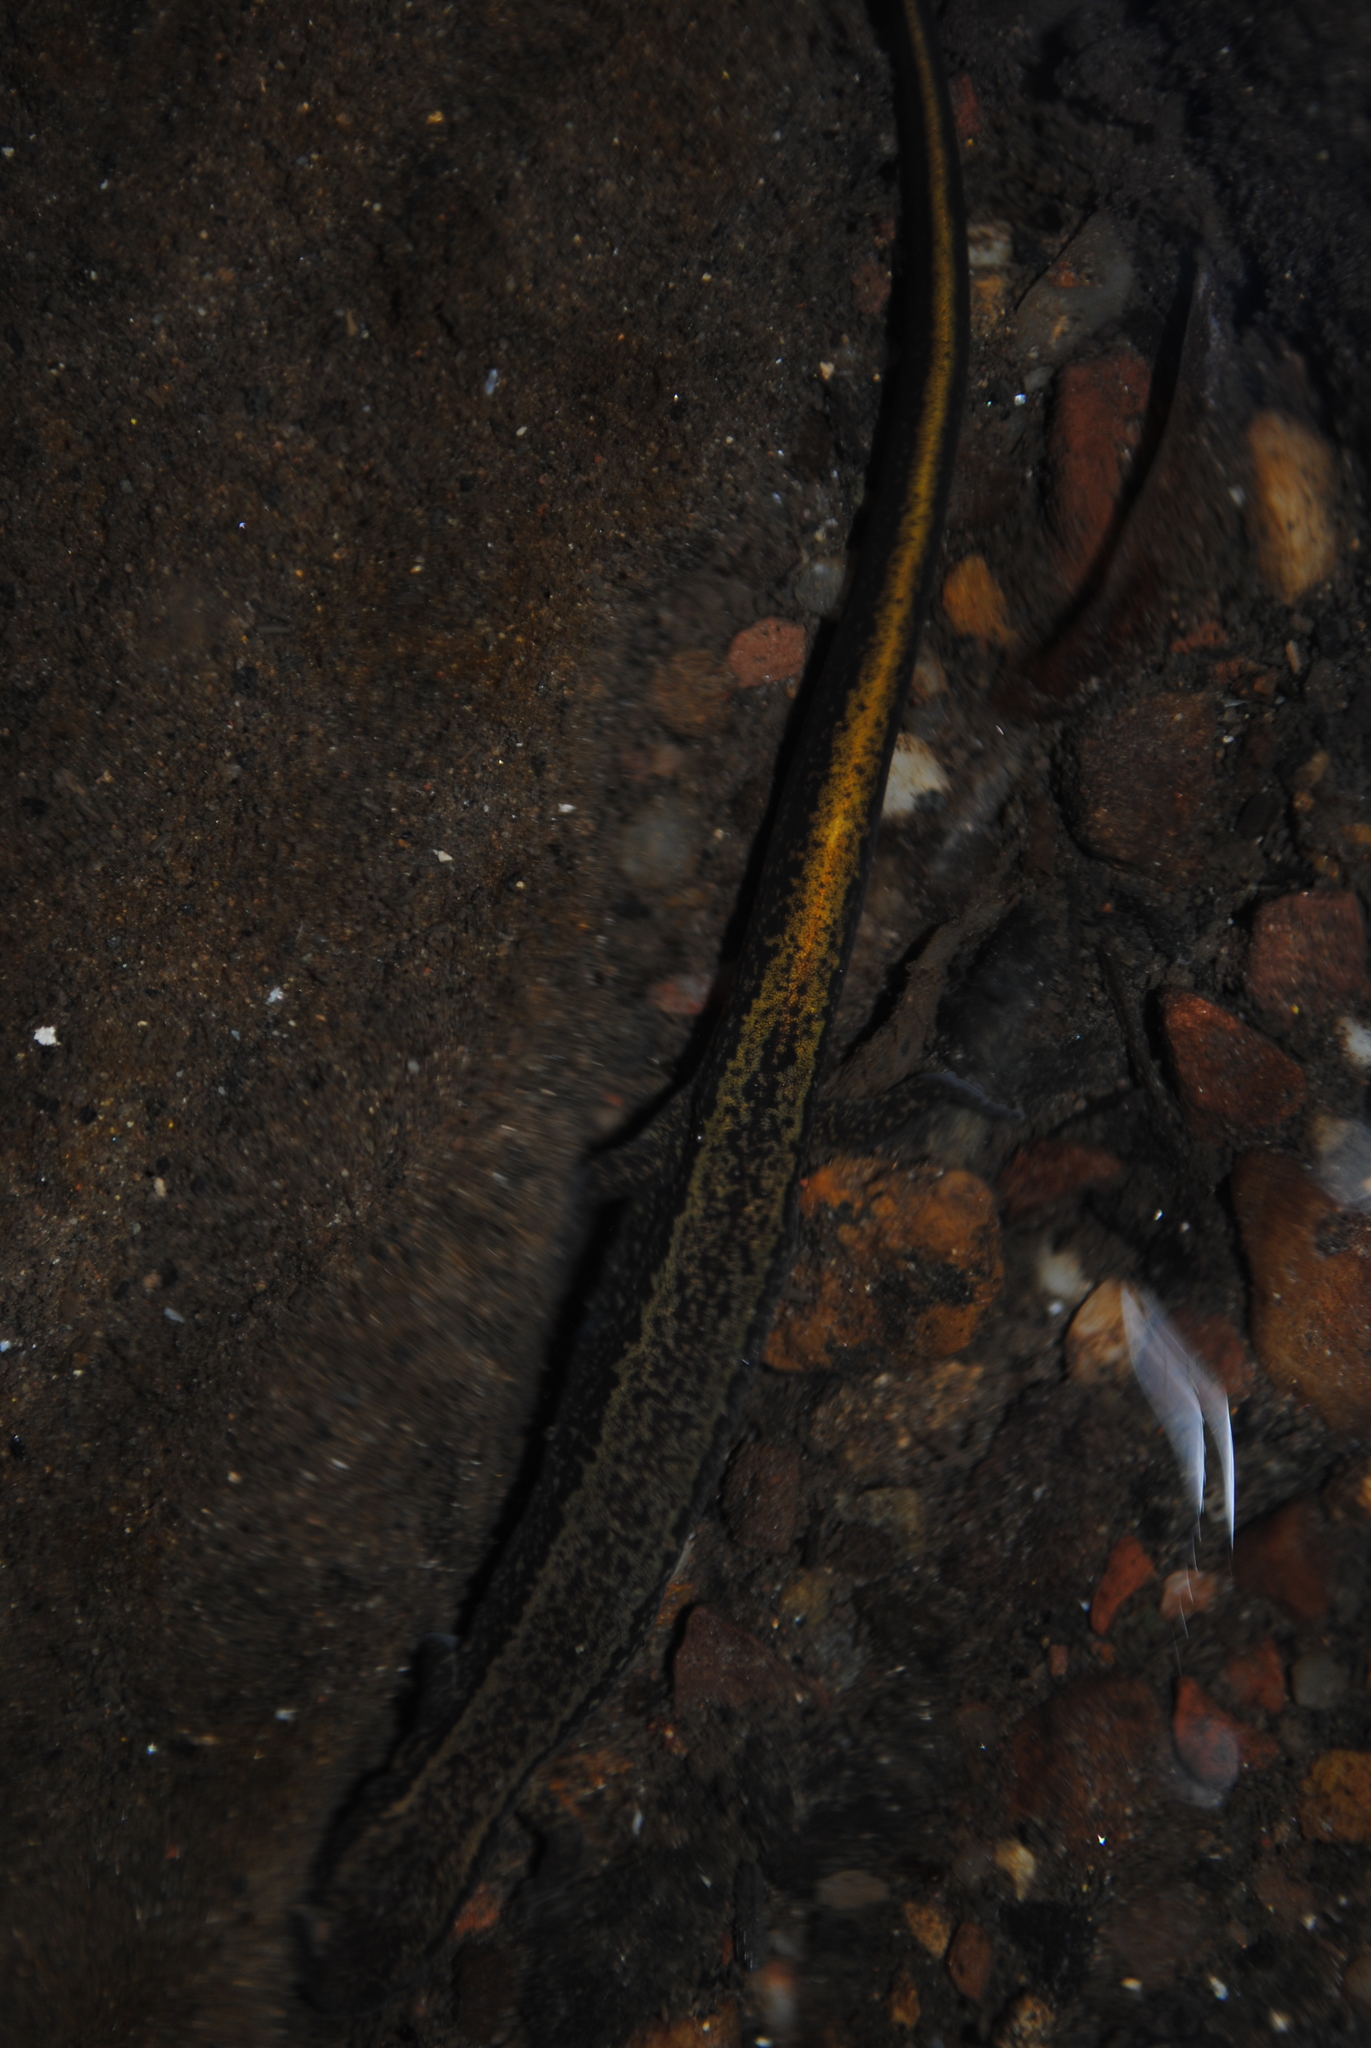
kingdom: Animalia
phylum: Chordata
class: Amphibia
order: Caudata
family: Plethodontidae
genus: Eurycea
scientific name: Eurycea bislineata
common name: Northern two-lined salamander
